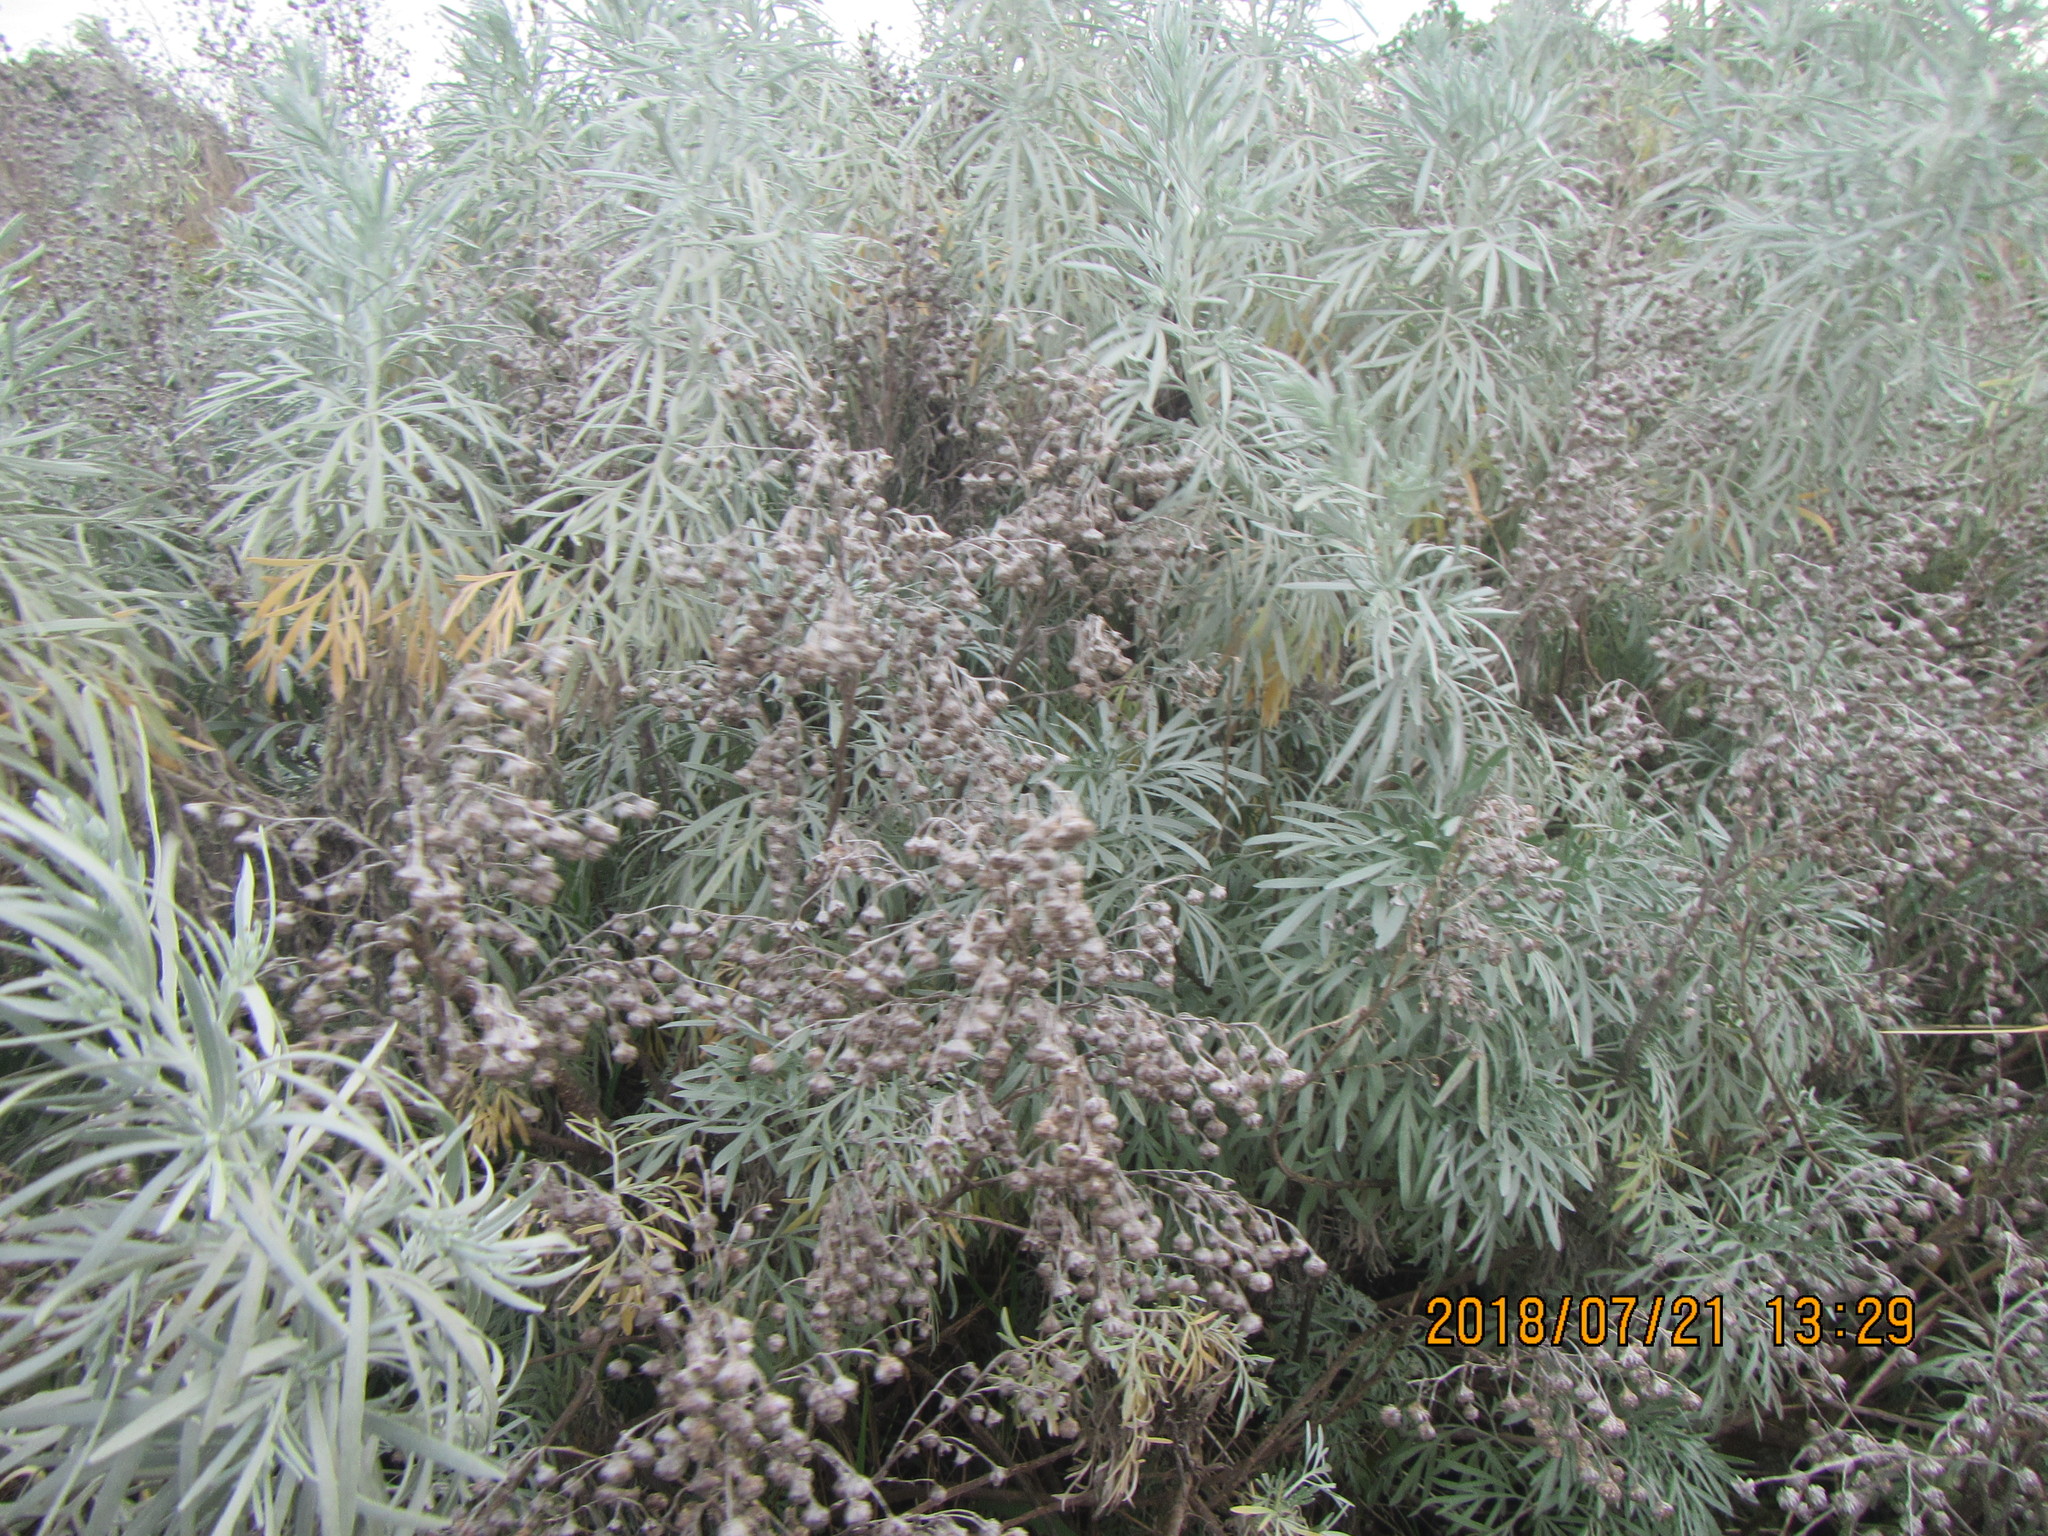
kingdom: Plantae
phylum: Tracheophyta
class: Magnoliopsida
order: Asterales
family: Asteraceae
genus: Artemisia
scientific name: Artemisia arborescens
